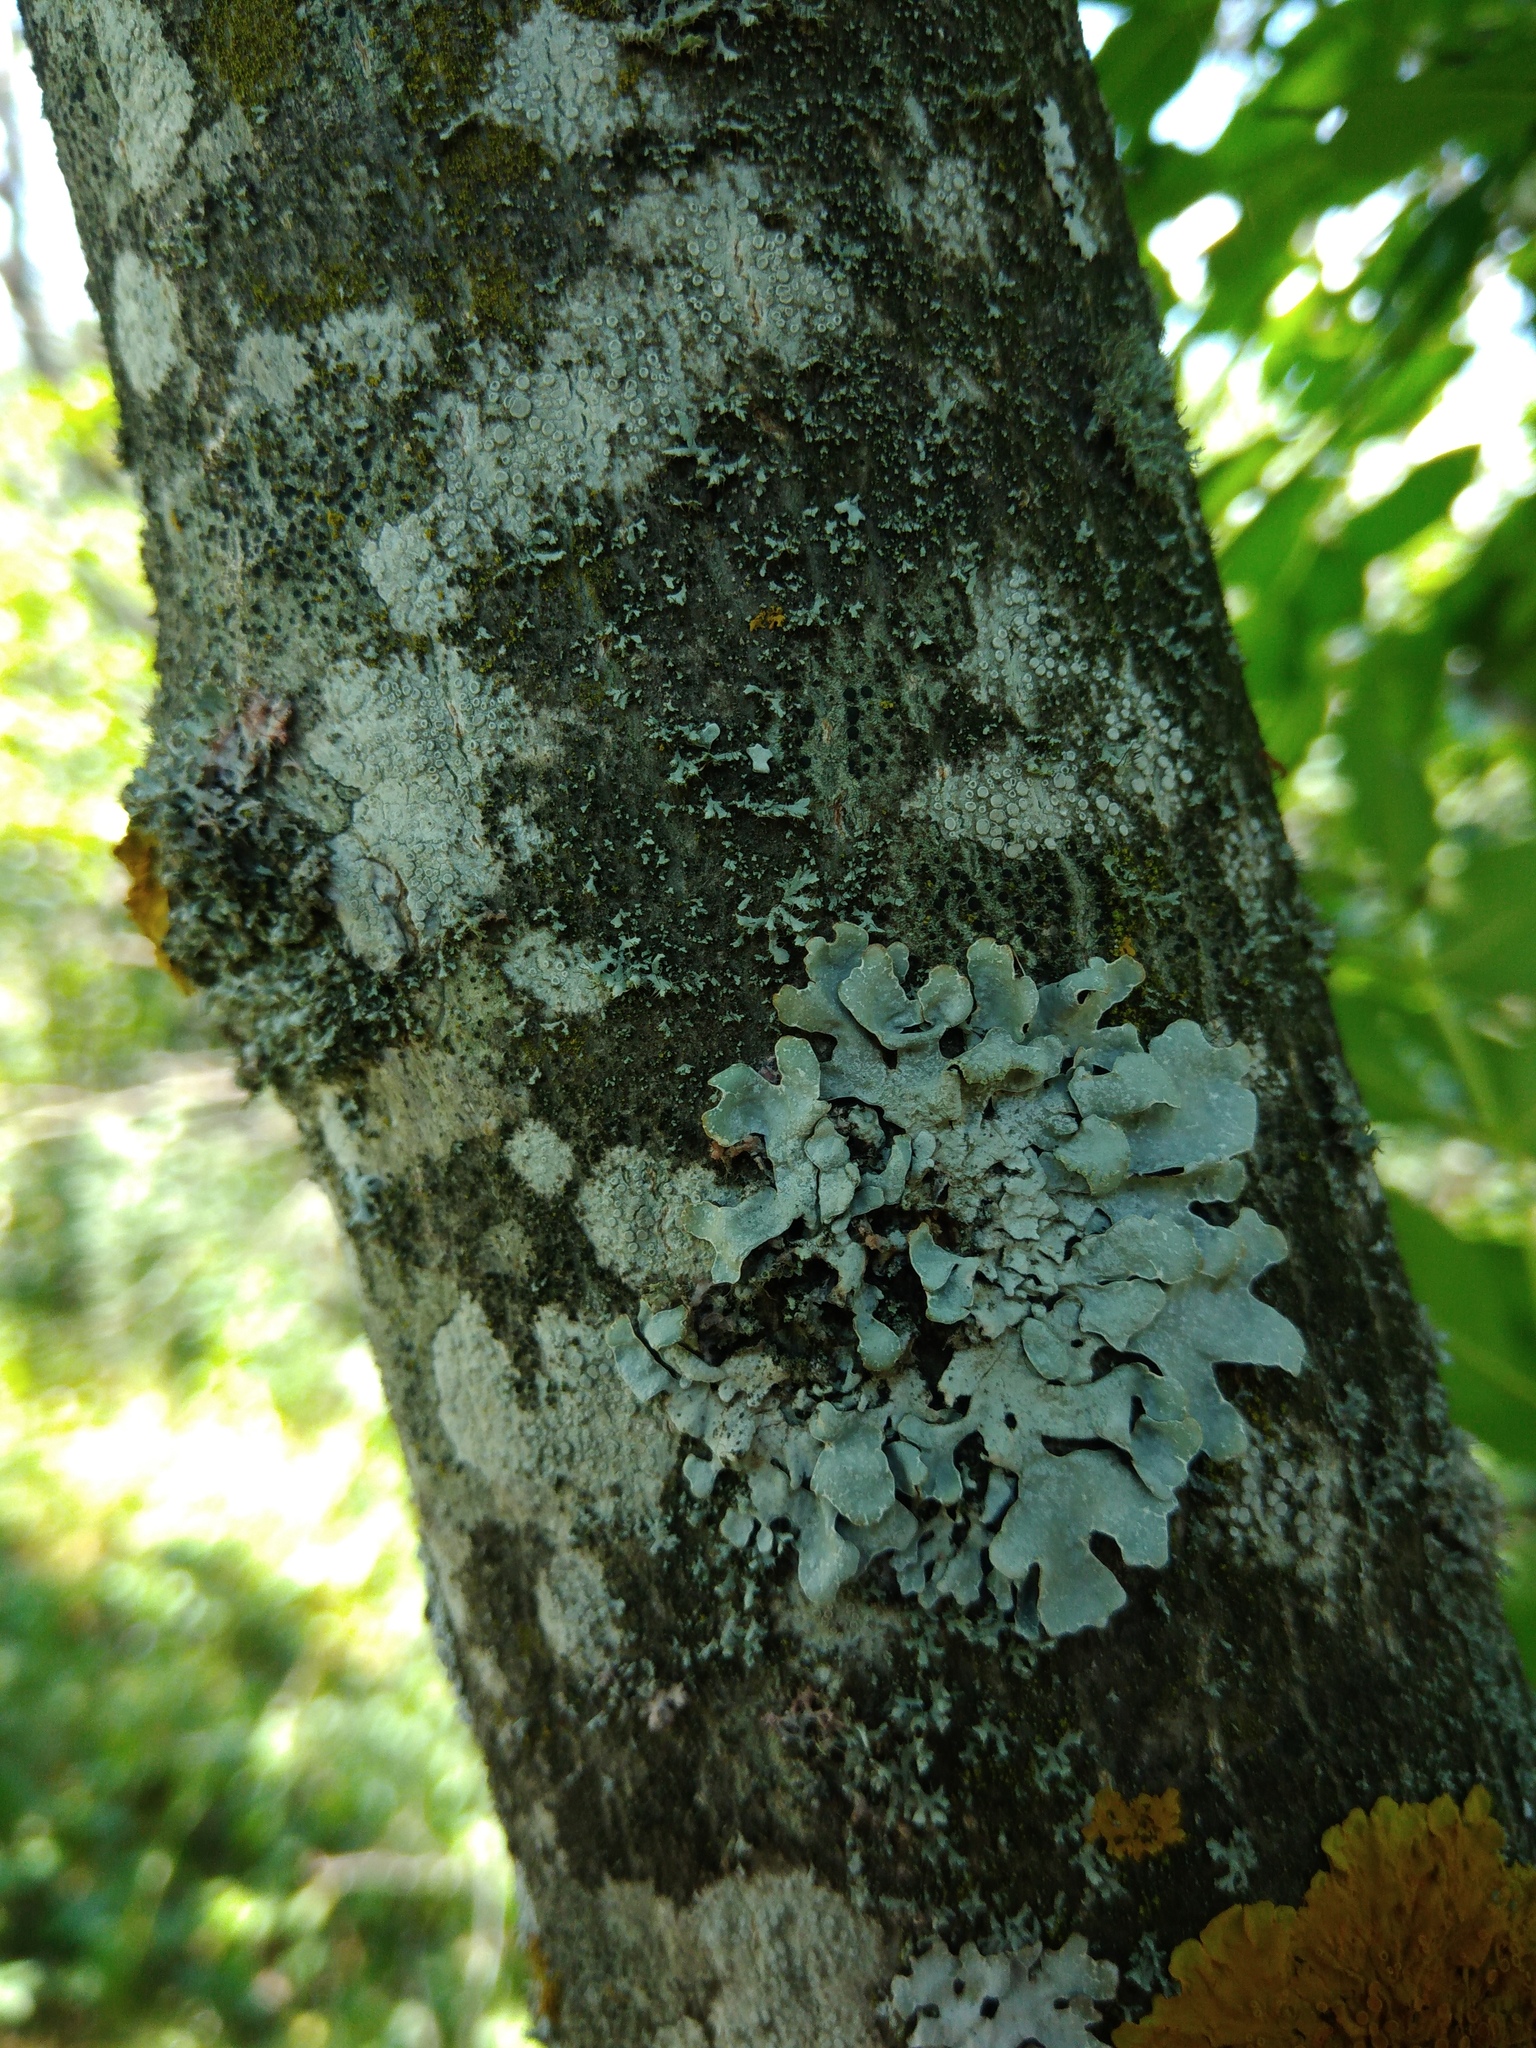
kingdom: Fungi
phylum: Ascomycota
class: Lecanoromycetes
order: Lecanorales
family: Parmeliaceae
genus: Parmelia
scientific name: Parmelia sulcata
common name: Netted shield lichen
